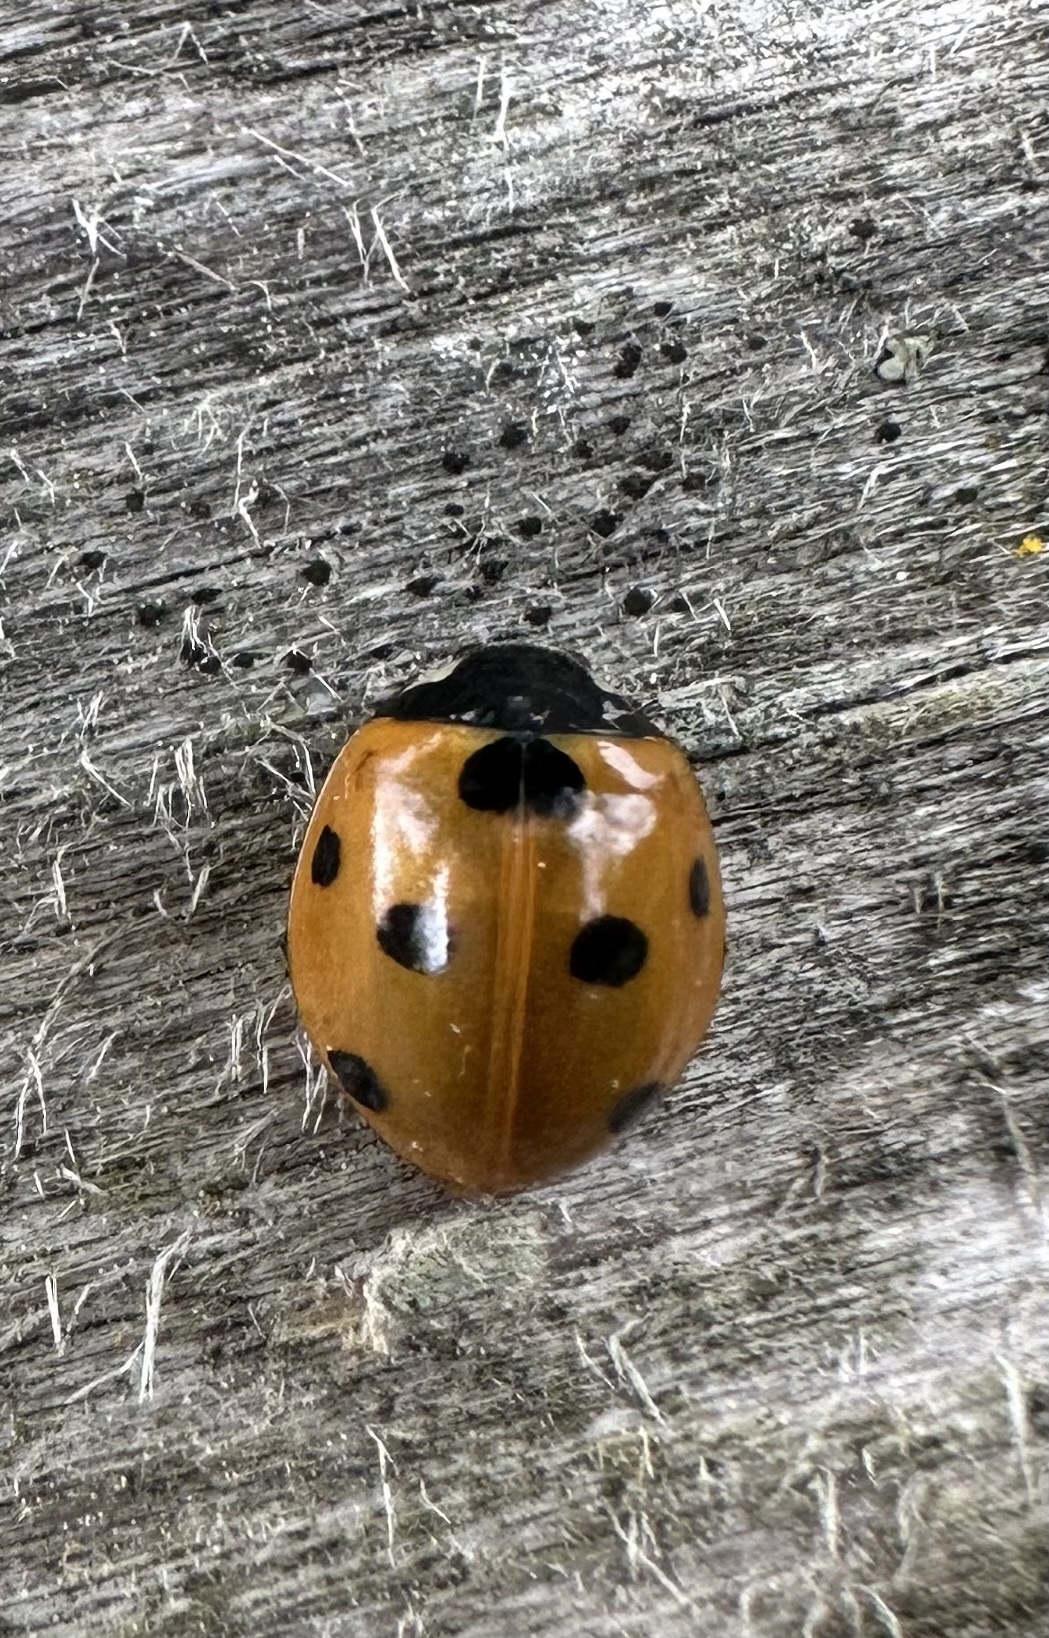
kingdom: Animalia
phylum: Arthropoda
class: Insecta
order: Coleoptera
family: Coccinellidae
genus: Coccinella
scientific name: Coccinella septempunctata
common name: Sevenspotted lady beetle
